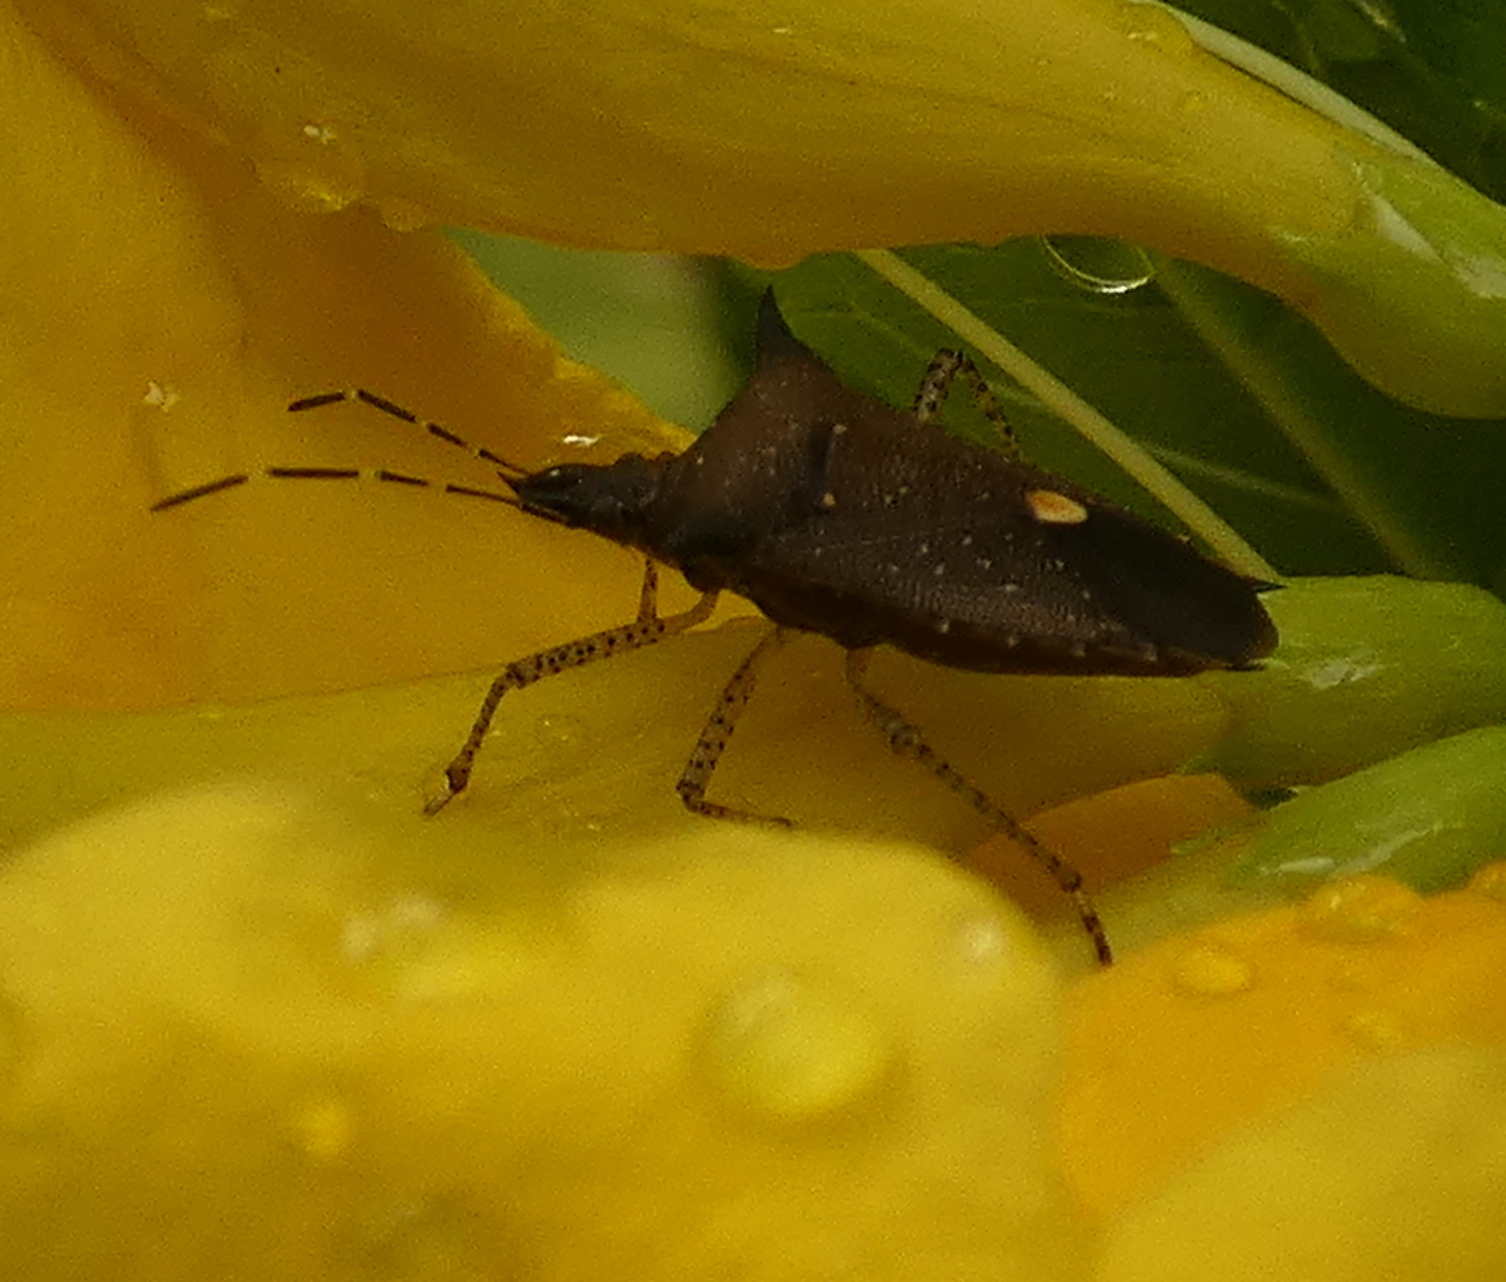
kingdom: Animalia
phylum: Arthropoda
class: Insecta
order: Hemiptera
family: Pentatomidae
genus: Proxys
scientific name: Proxys albopunctulatus
